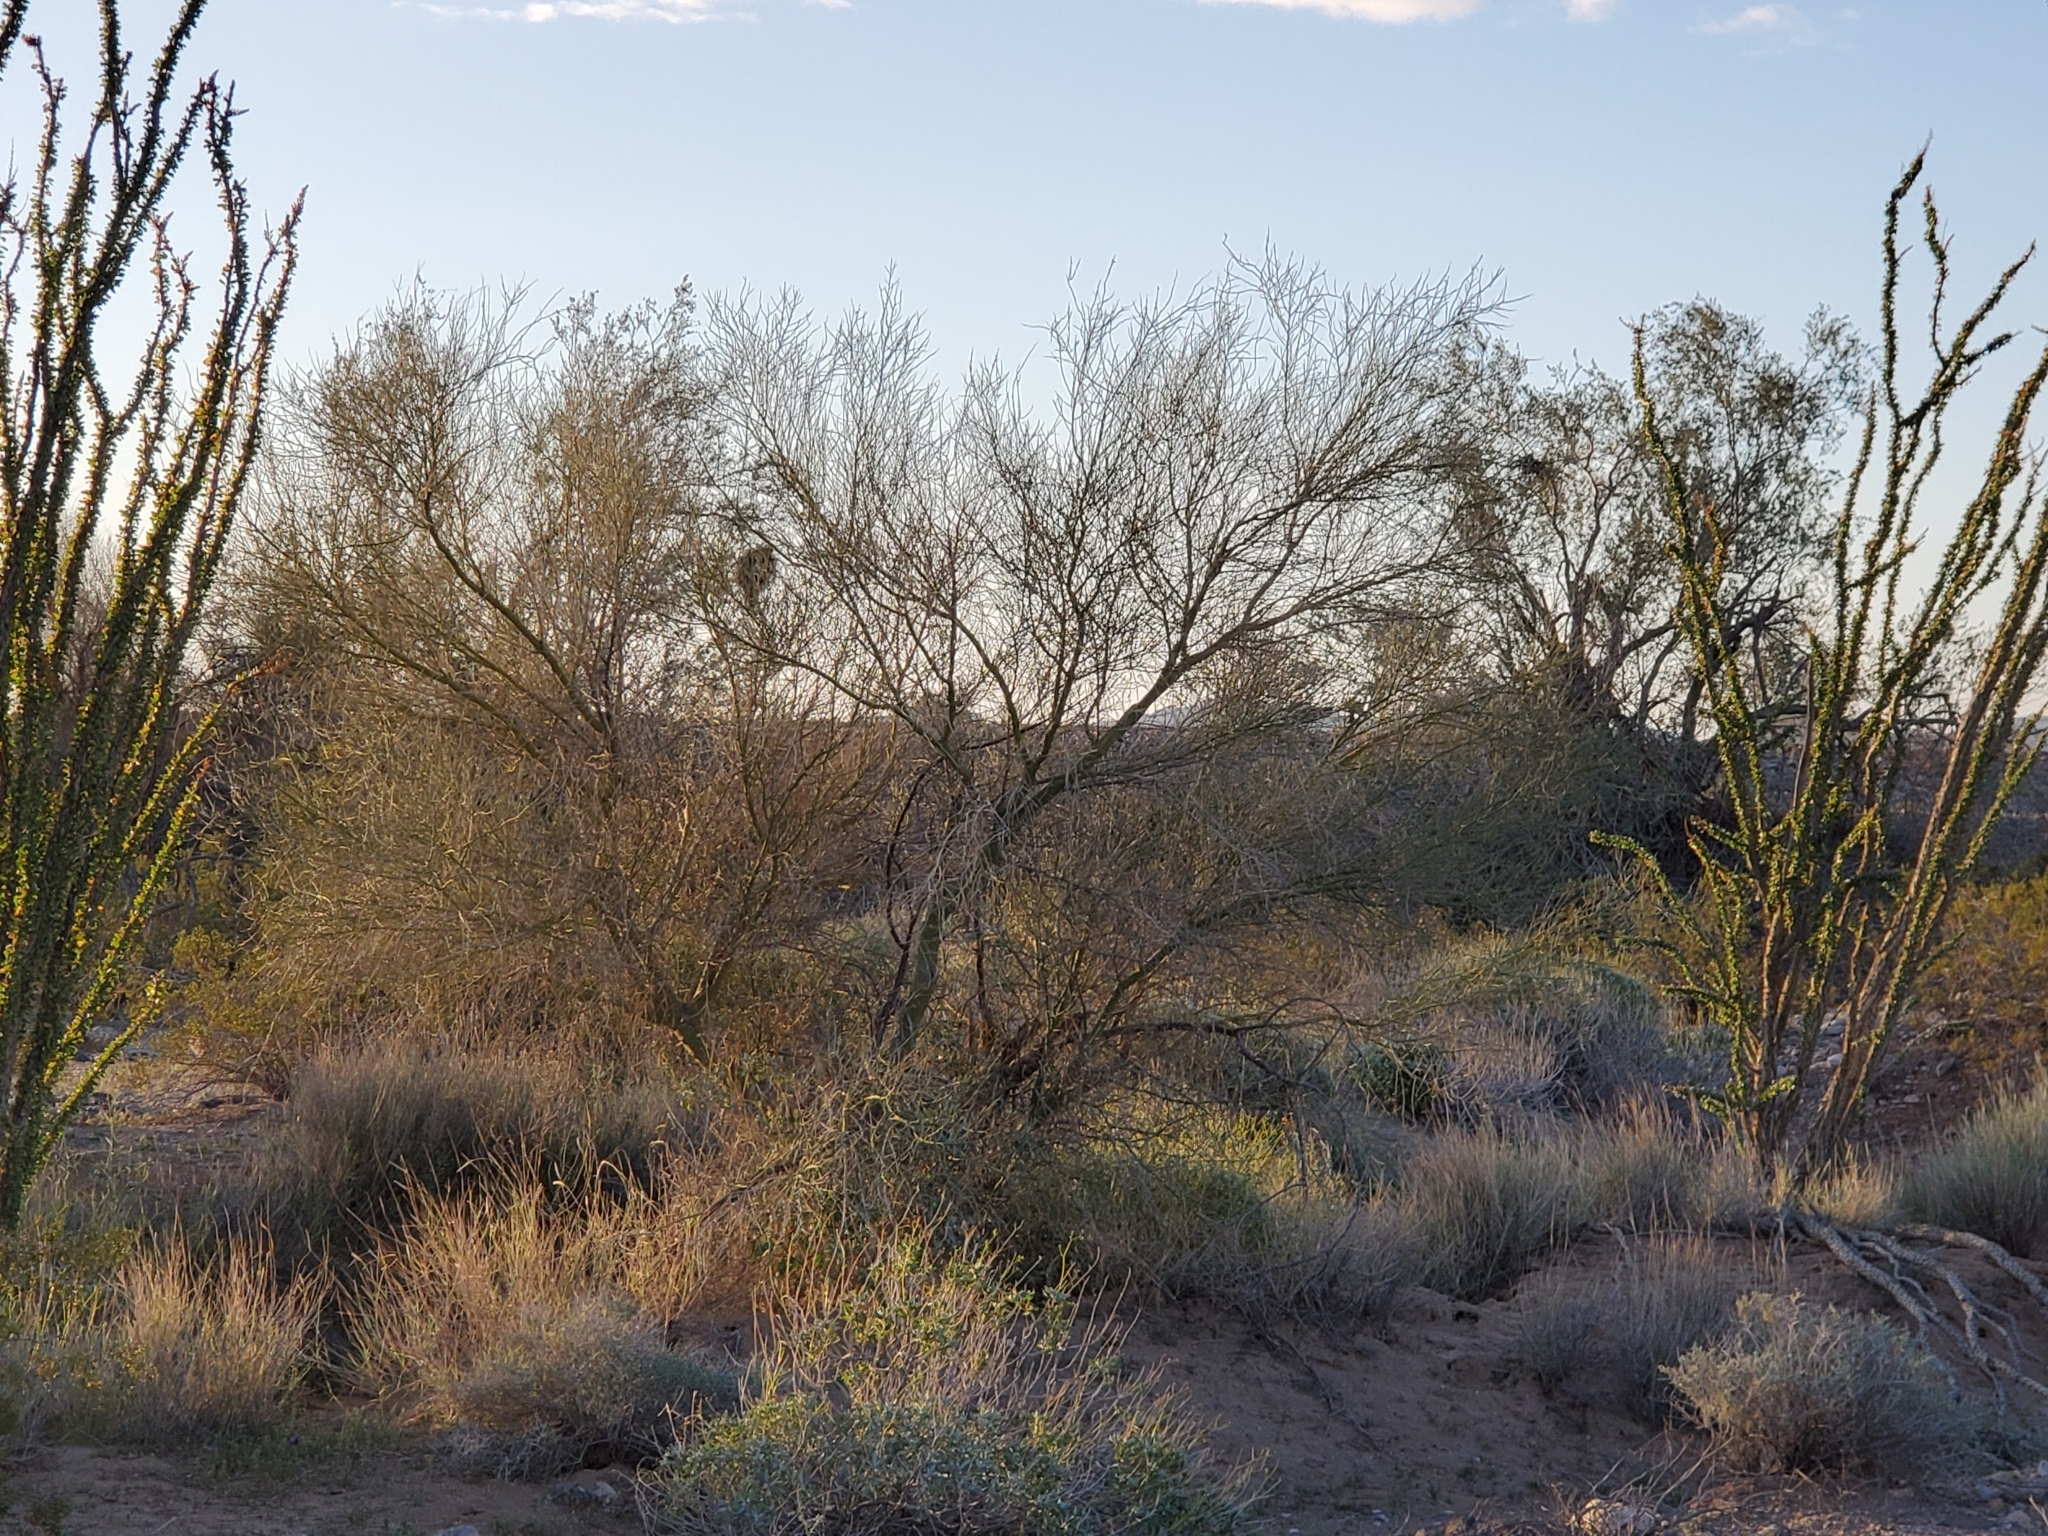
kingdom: Plantae
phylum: Tracheophyta
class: Magnoliopsida
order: Fabales
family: Fabaceae
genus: Parkinsonia
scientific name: Parkinsonia florida
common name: Blue paloverde
